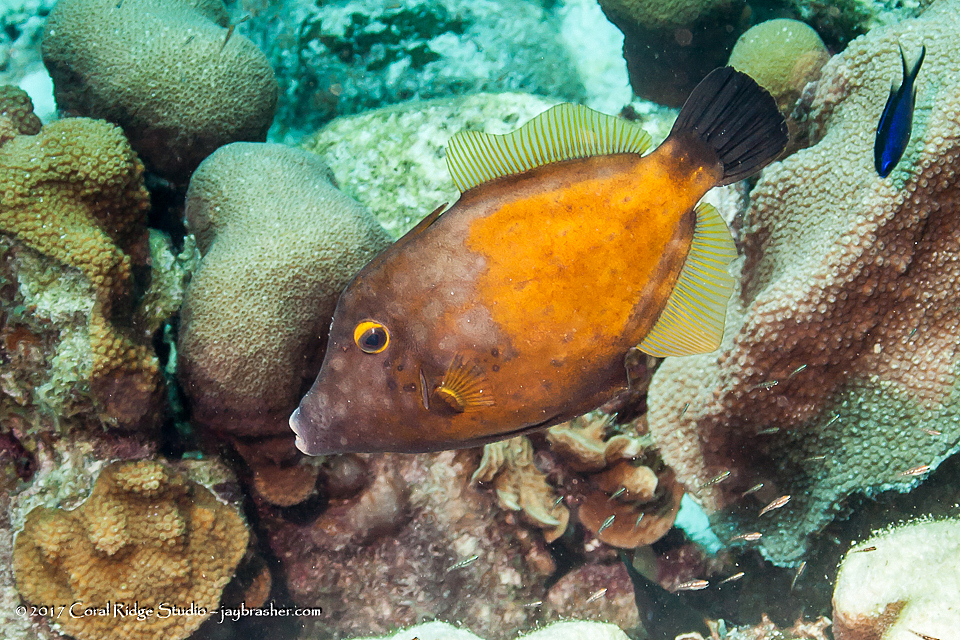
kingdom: Animalia
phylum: Chordata
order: Tetraodontiformes
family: Monacanthidae
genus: Cantherhines
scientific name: Cantherhines macrocerus
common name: Whitespotted filefish
